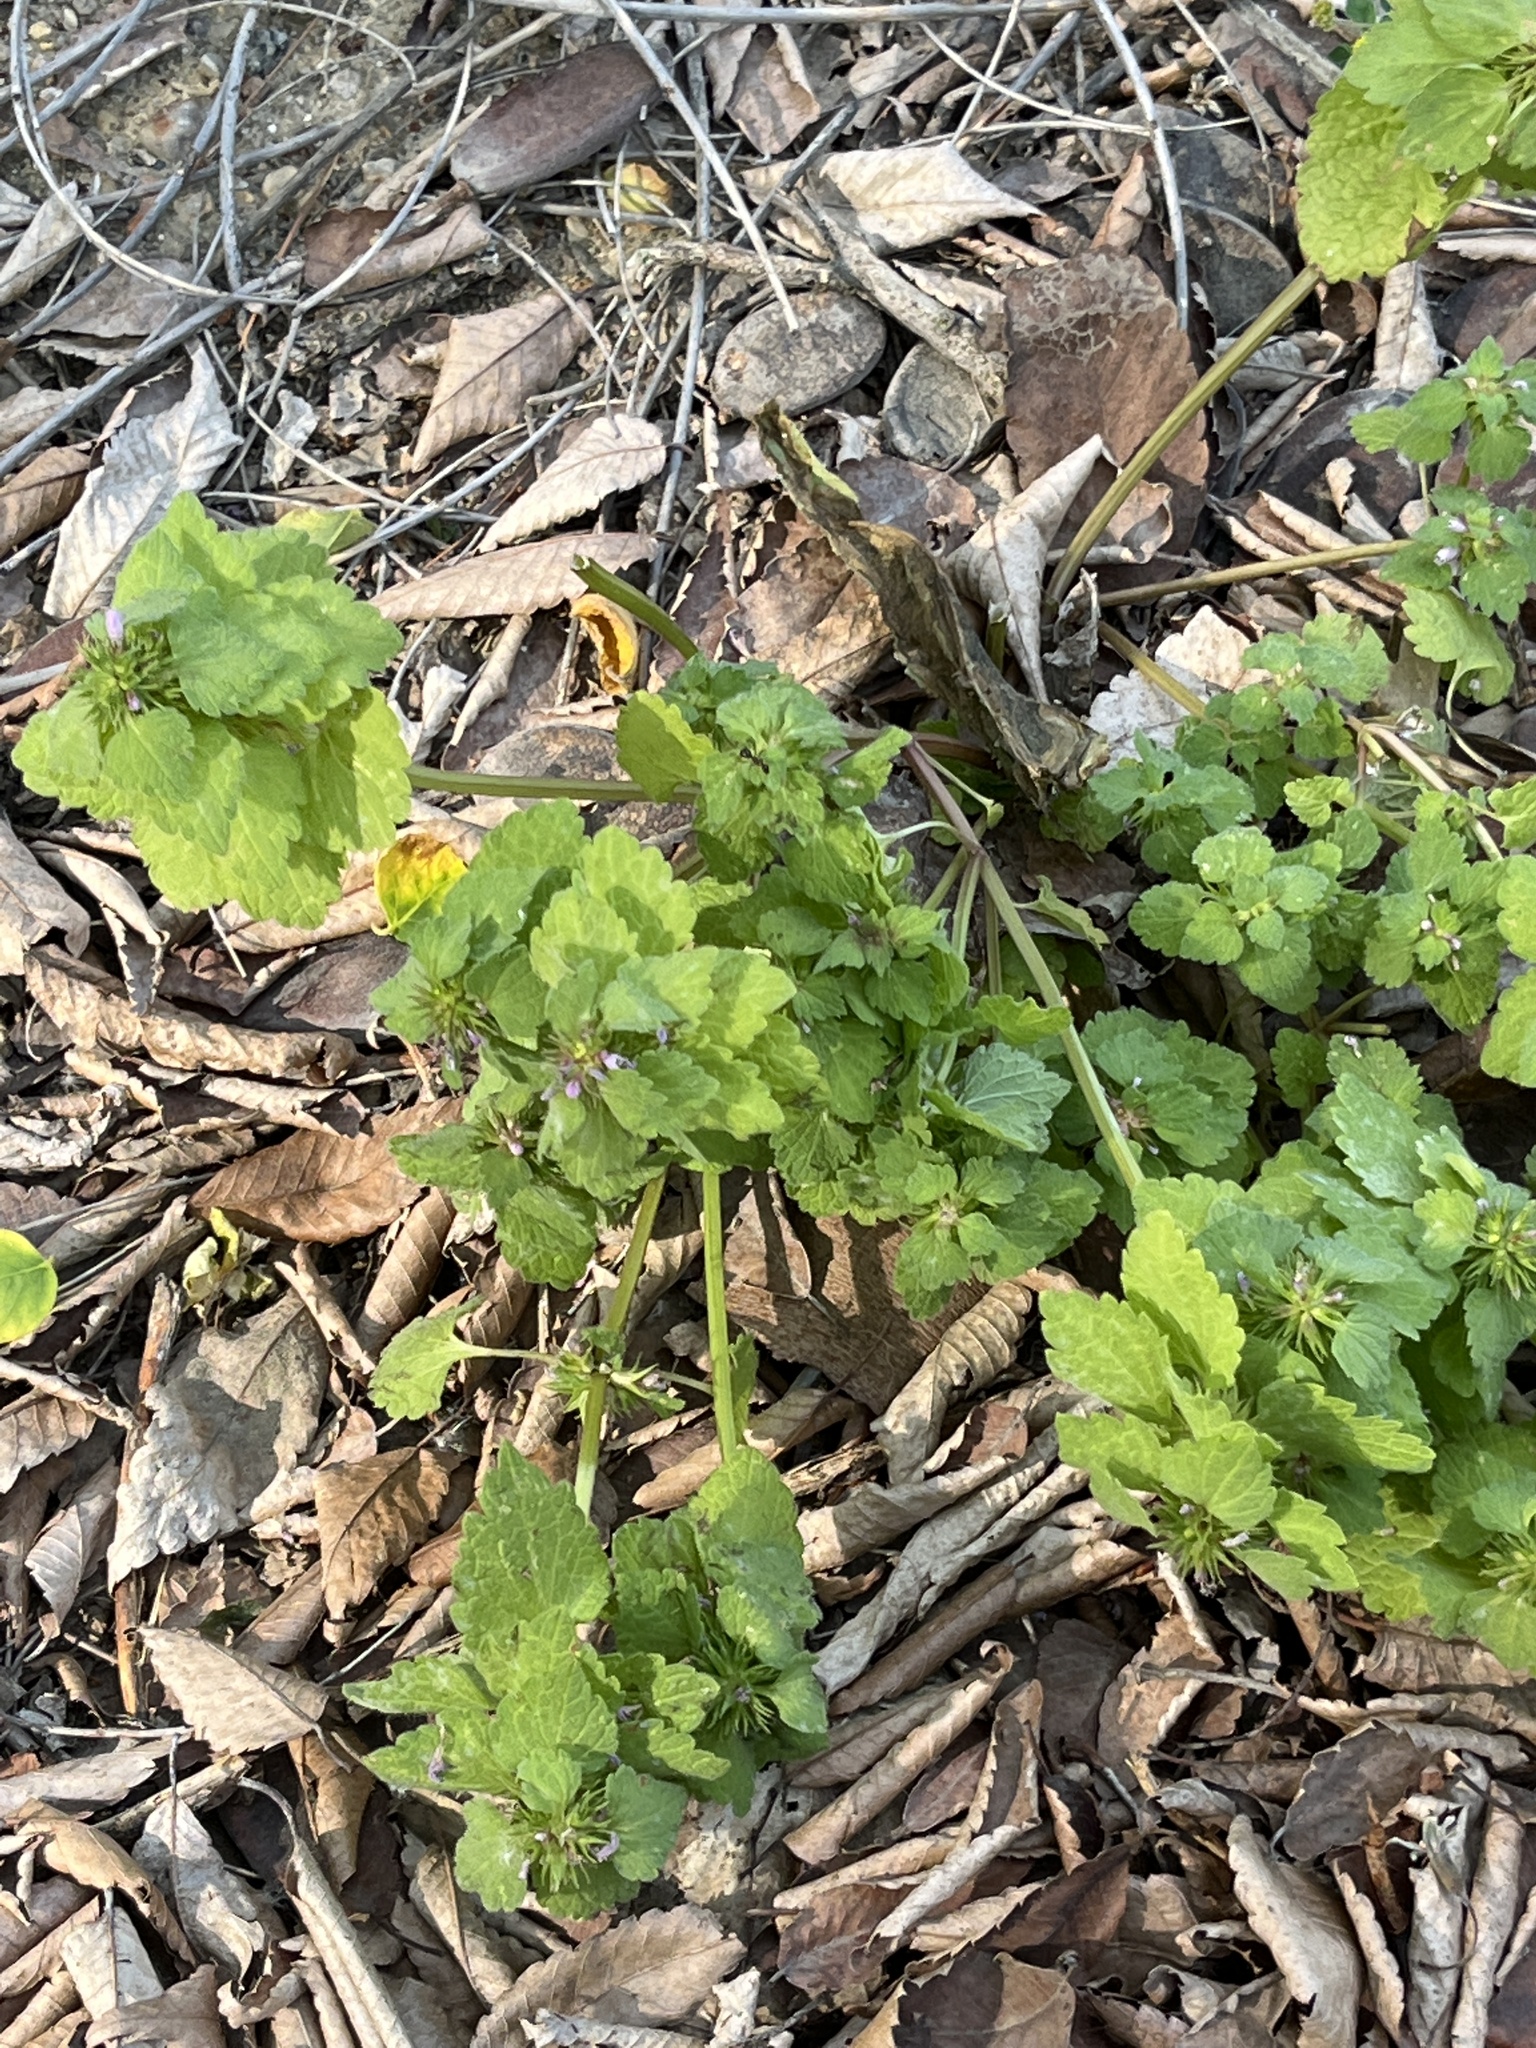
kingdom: Plantae
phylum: Tracheophyta
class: Magnoliopsida
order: Lamiales
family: Lamiaceae
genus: Lamium
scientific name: Lamium purpureum
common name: Red dead-nettle
